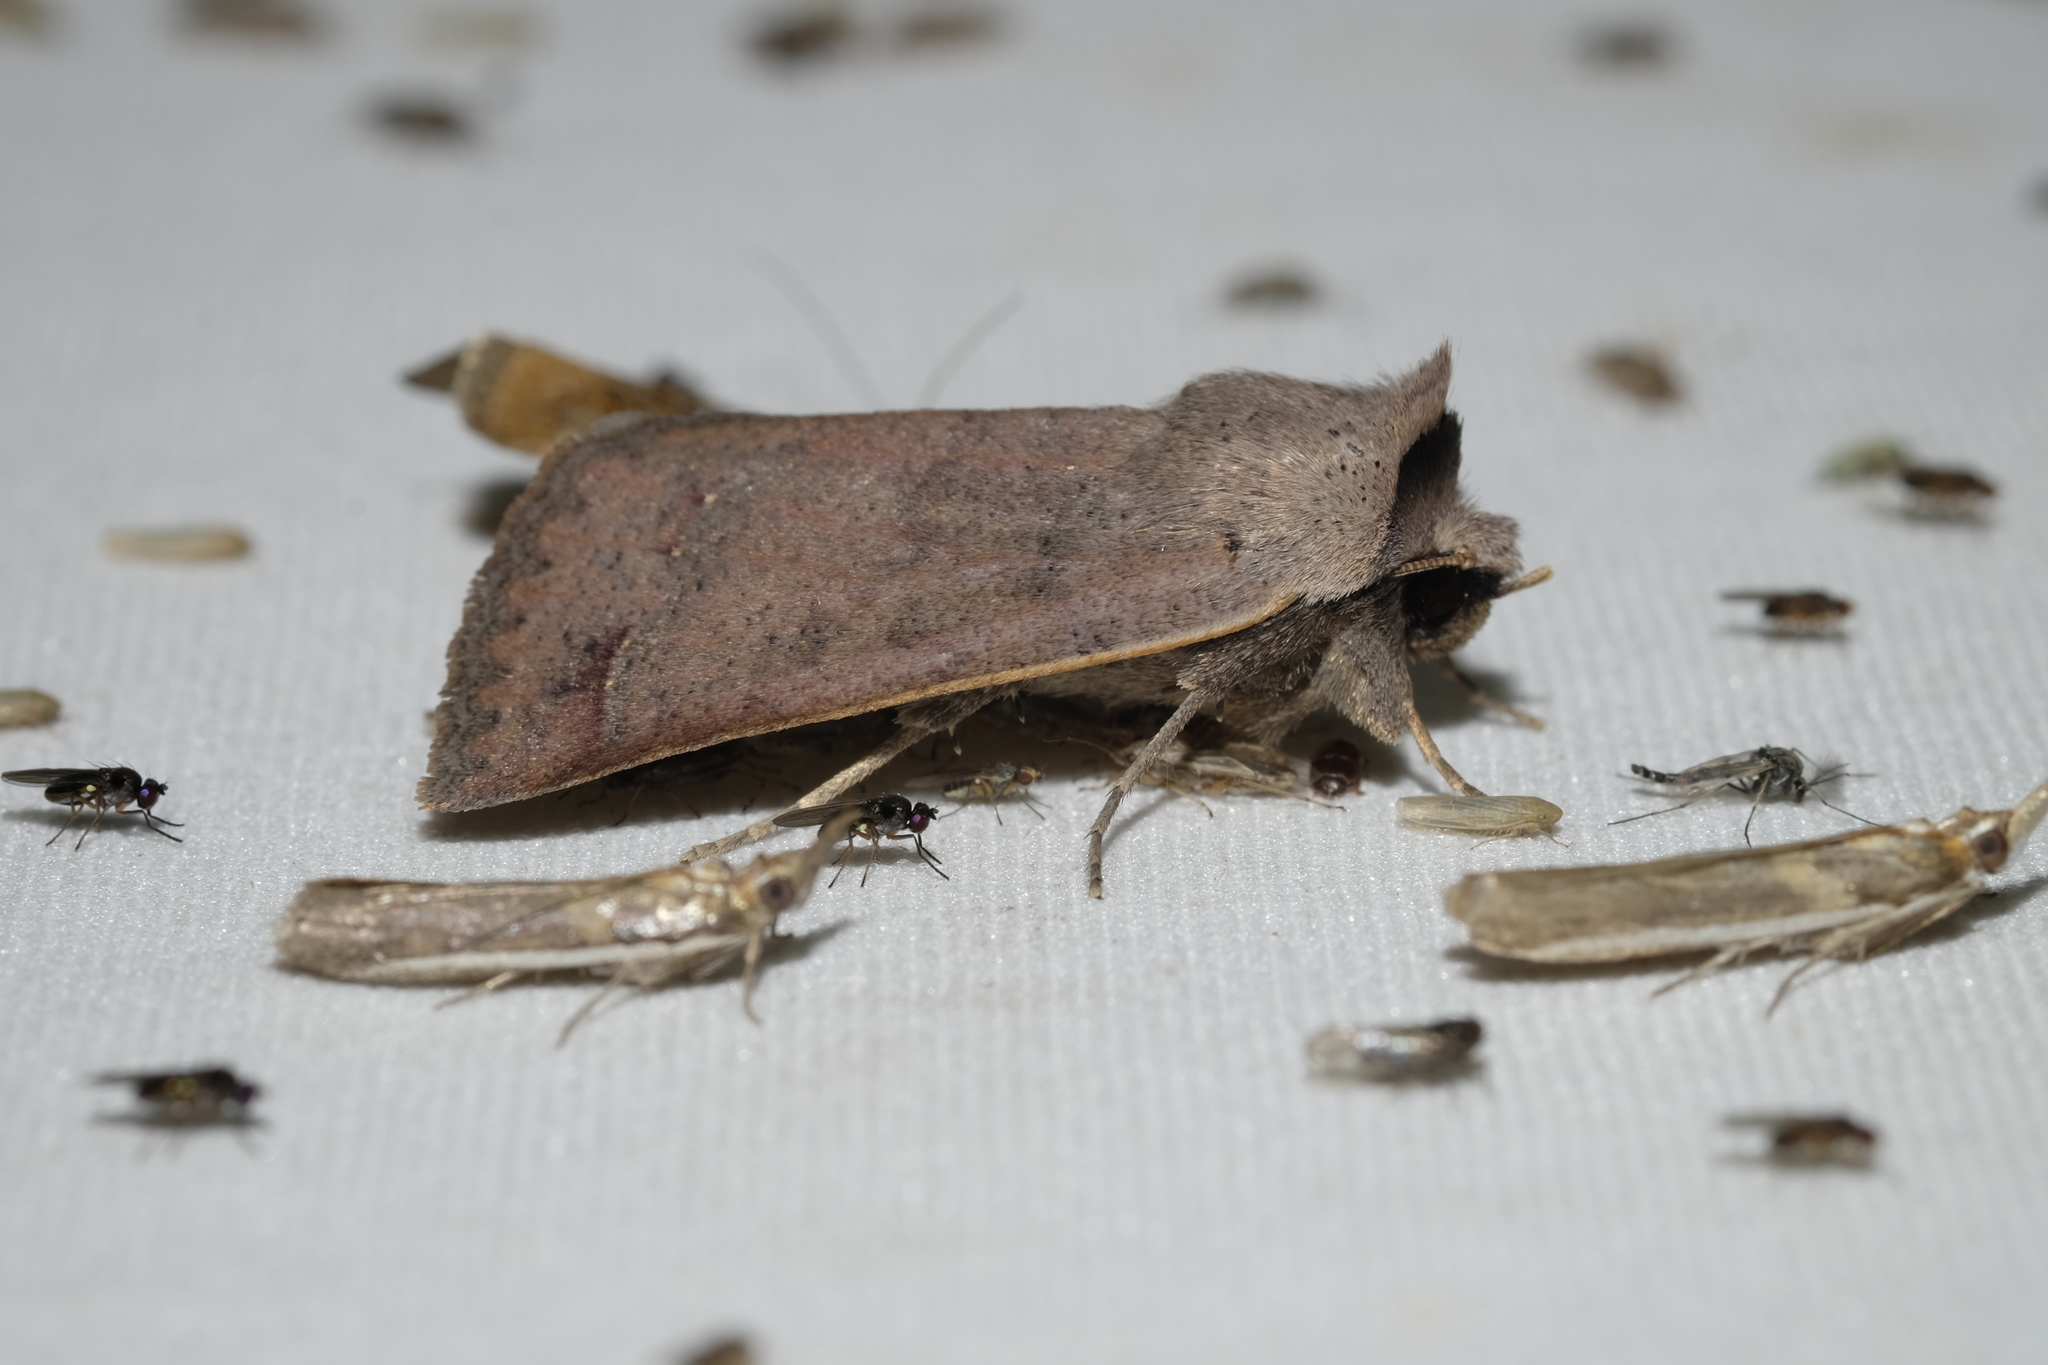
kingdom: Animalia
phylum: Arthropoda
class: Insecta
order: Lepidoptera
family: Erebidae
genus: Pantydia
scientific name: Pantydia sparsa
